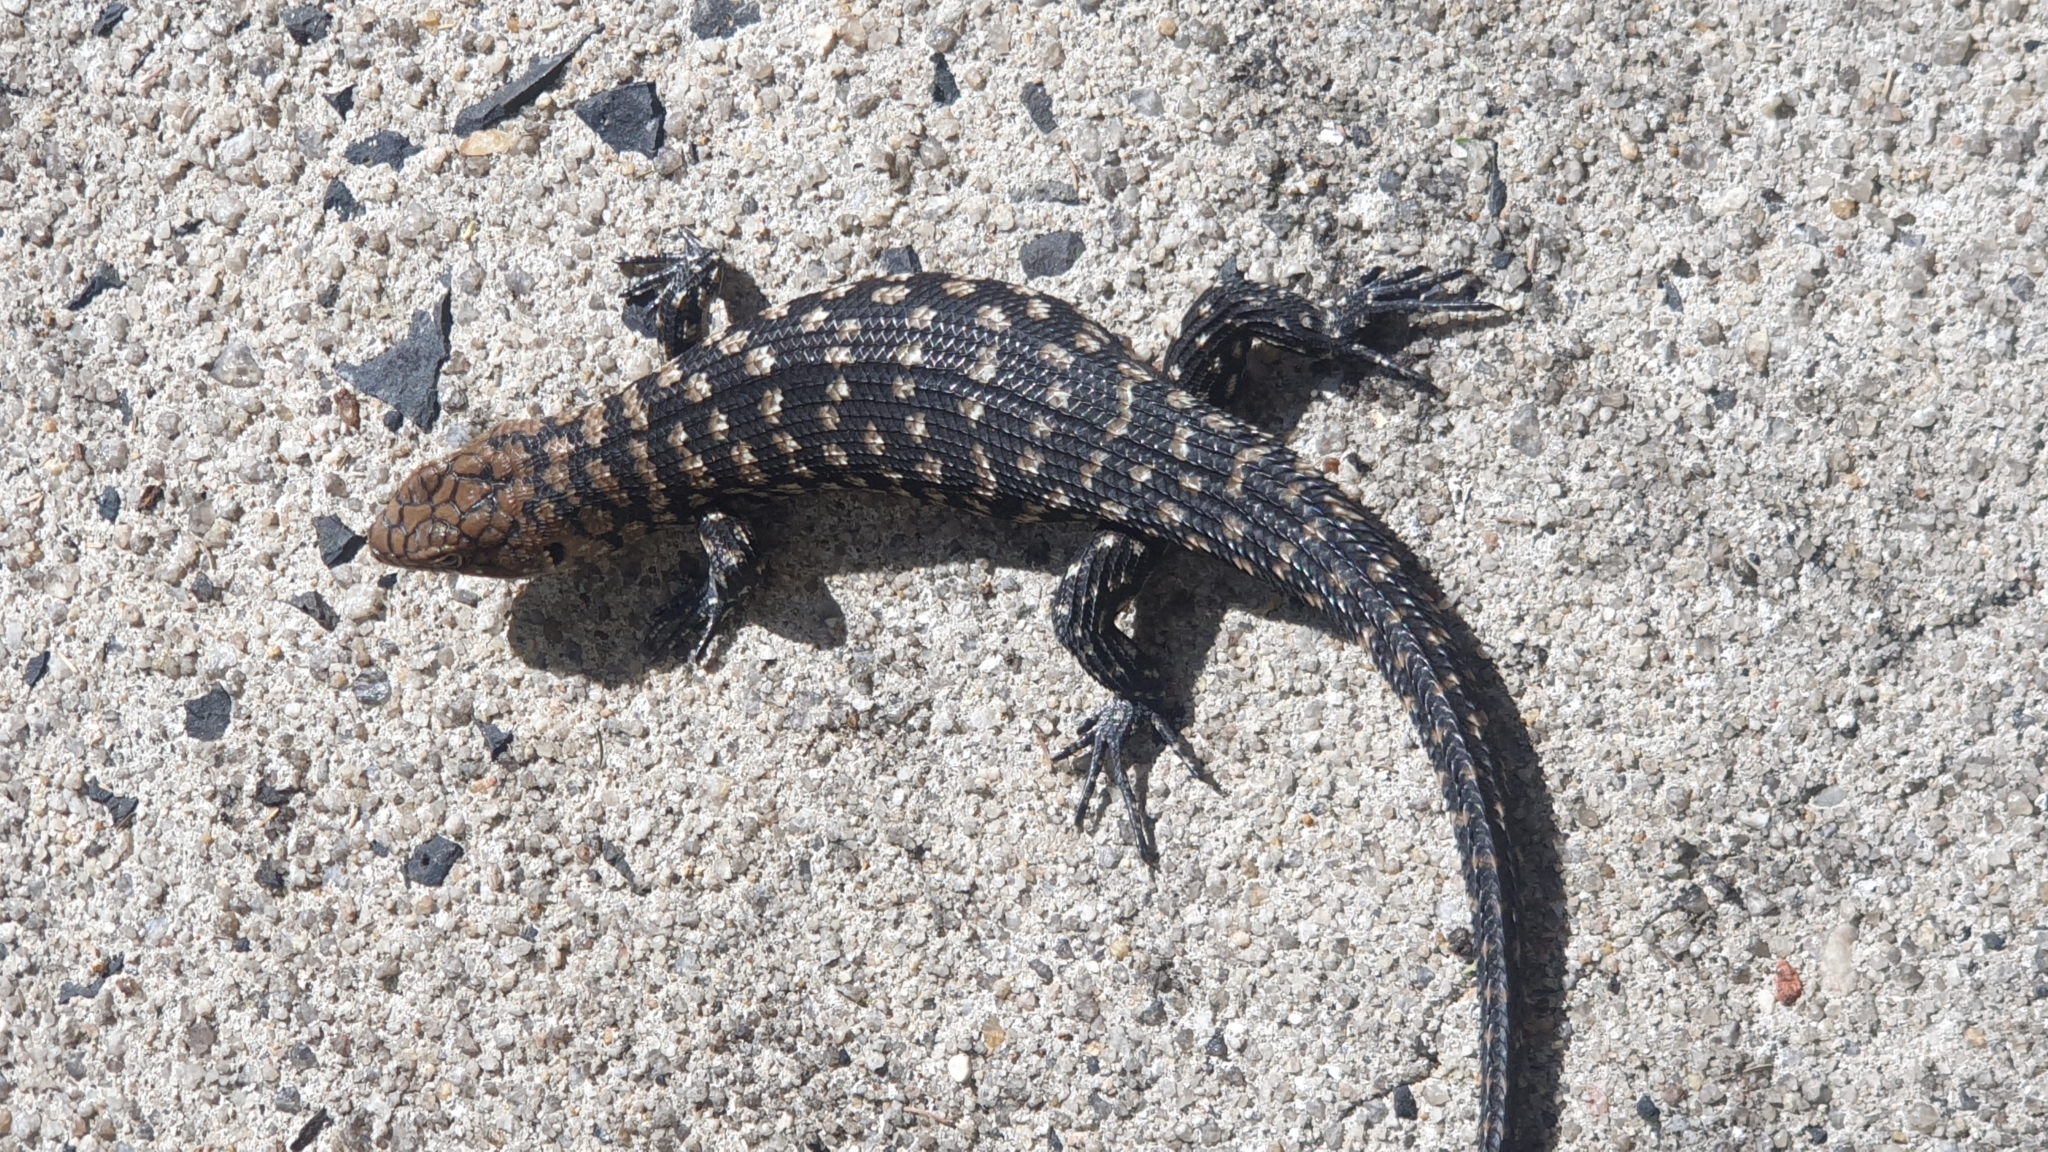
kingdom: Animalia
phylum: Chordata
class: Squamata
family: Scincidae
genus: Egernia
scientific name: Egernia cunninghami
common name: Cunningham's skink
